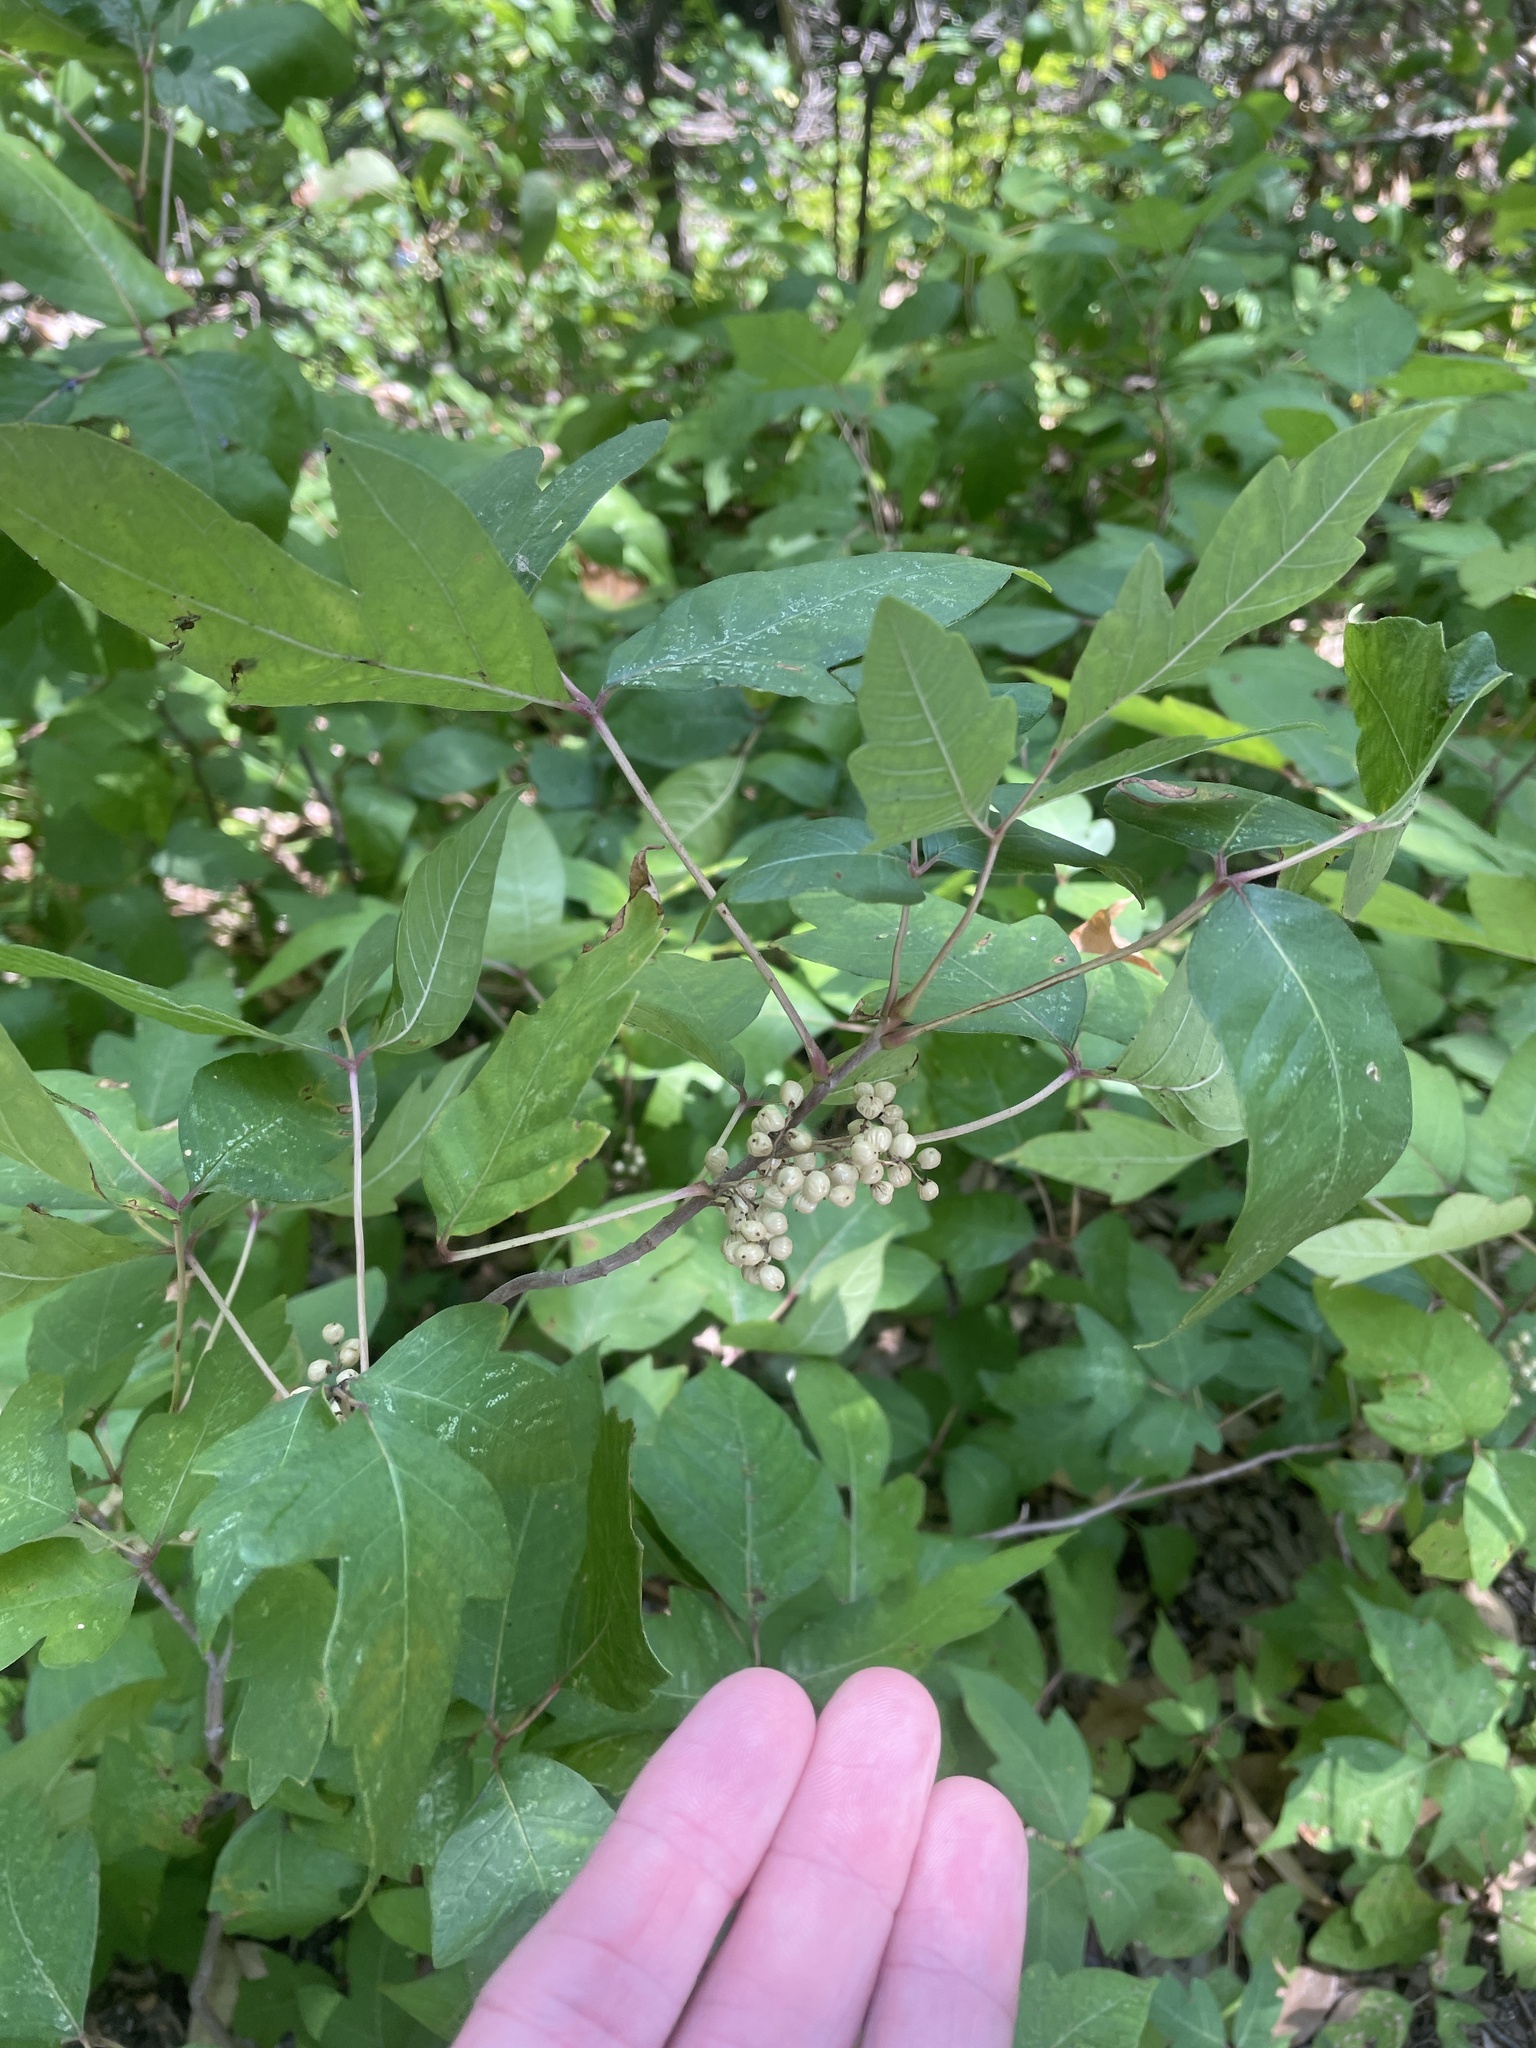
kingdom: Plantae
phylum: Tracheophyta
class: Magnoliopsida
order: Sapindales
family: Anacardiaceae
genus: Toxicodendron
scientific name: Toxicodendron radicans
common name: Poison ivy
